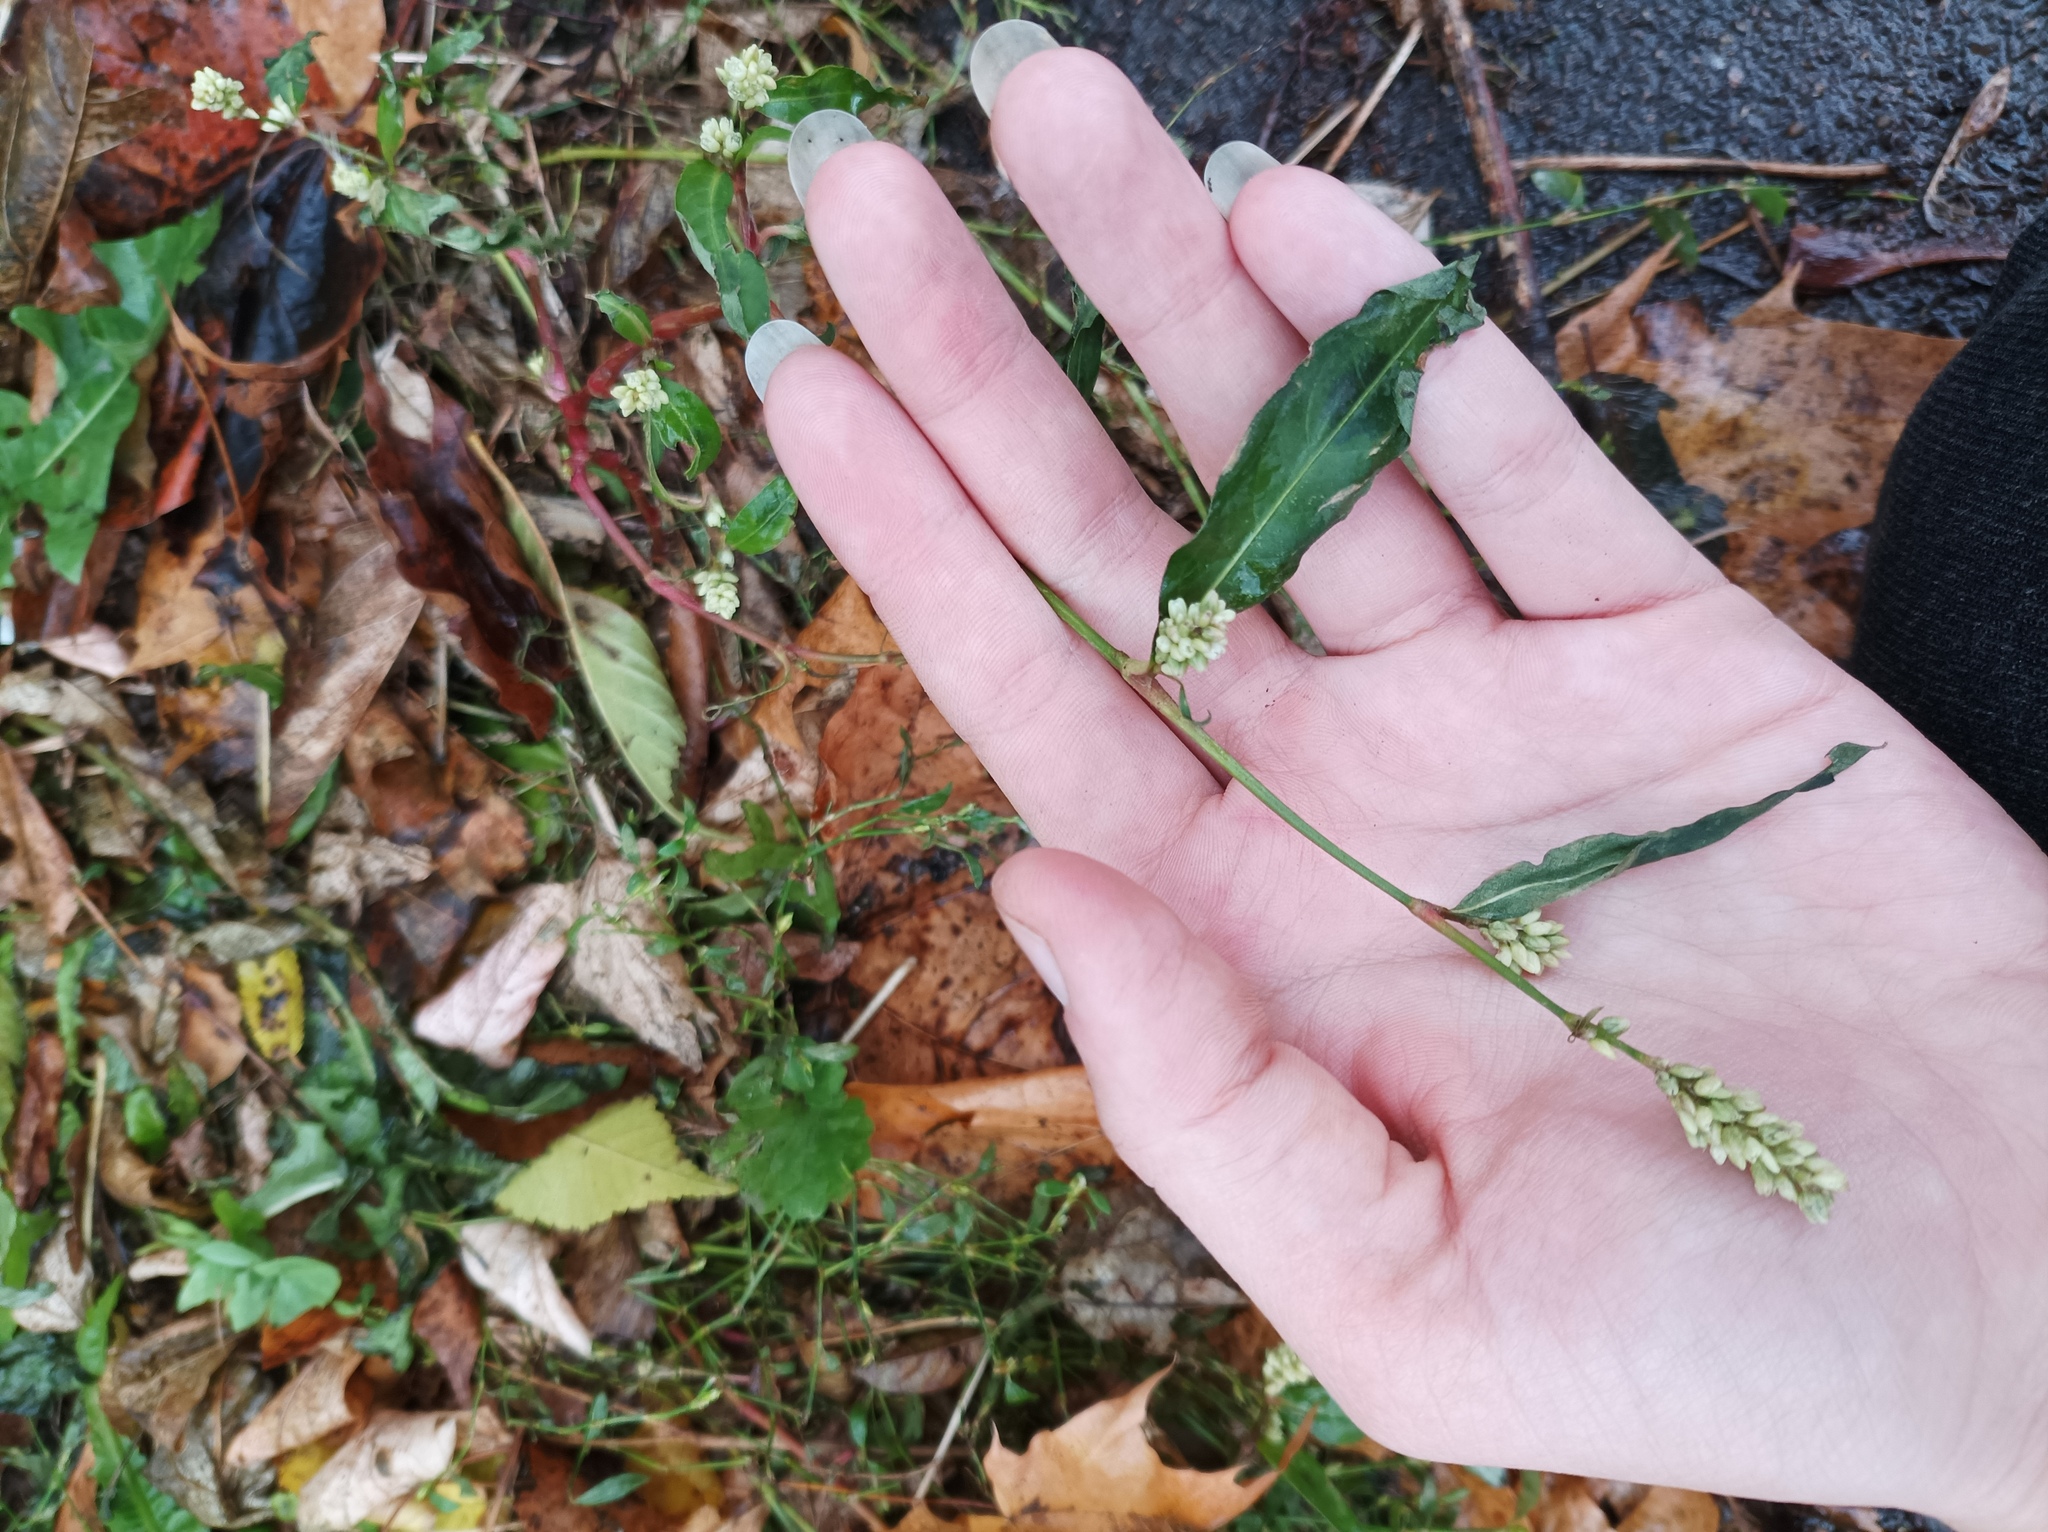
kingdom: Plantae
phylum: Tracheophyta
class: Magnoliopsida
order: Caryophyllales
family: Polygonaceae
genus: Persicaria
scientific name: Persicaria lapathifolia
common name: Curlytop knotweed
